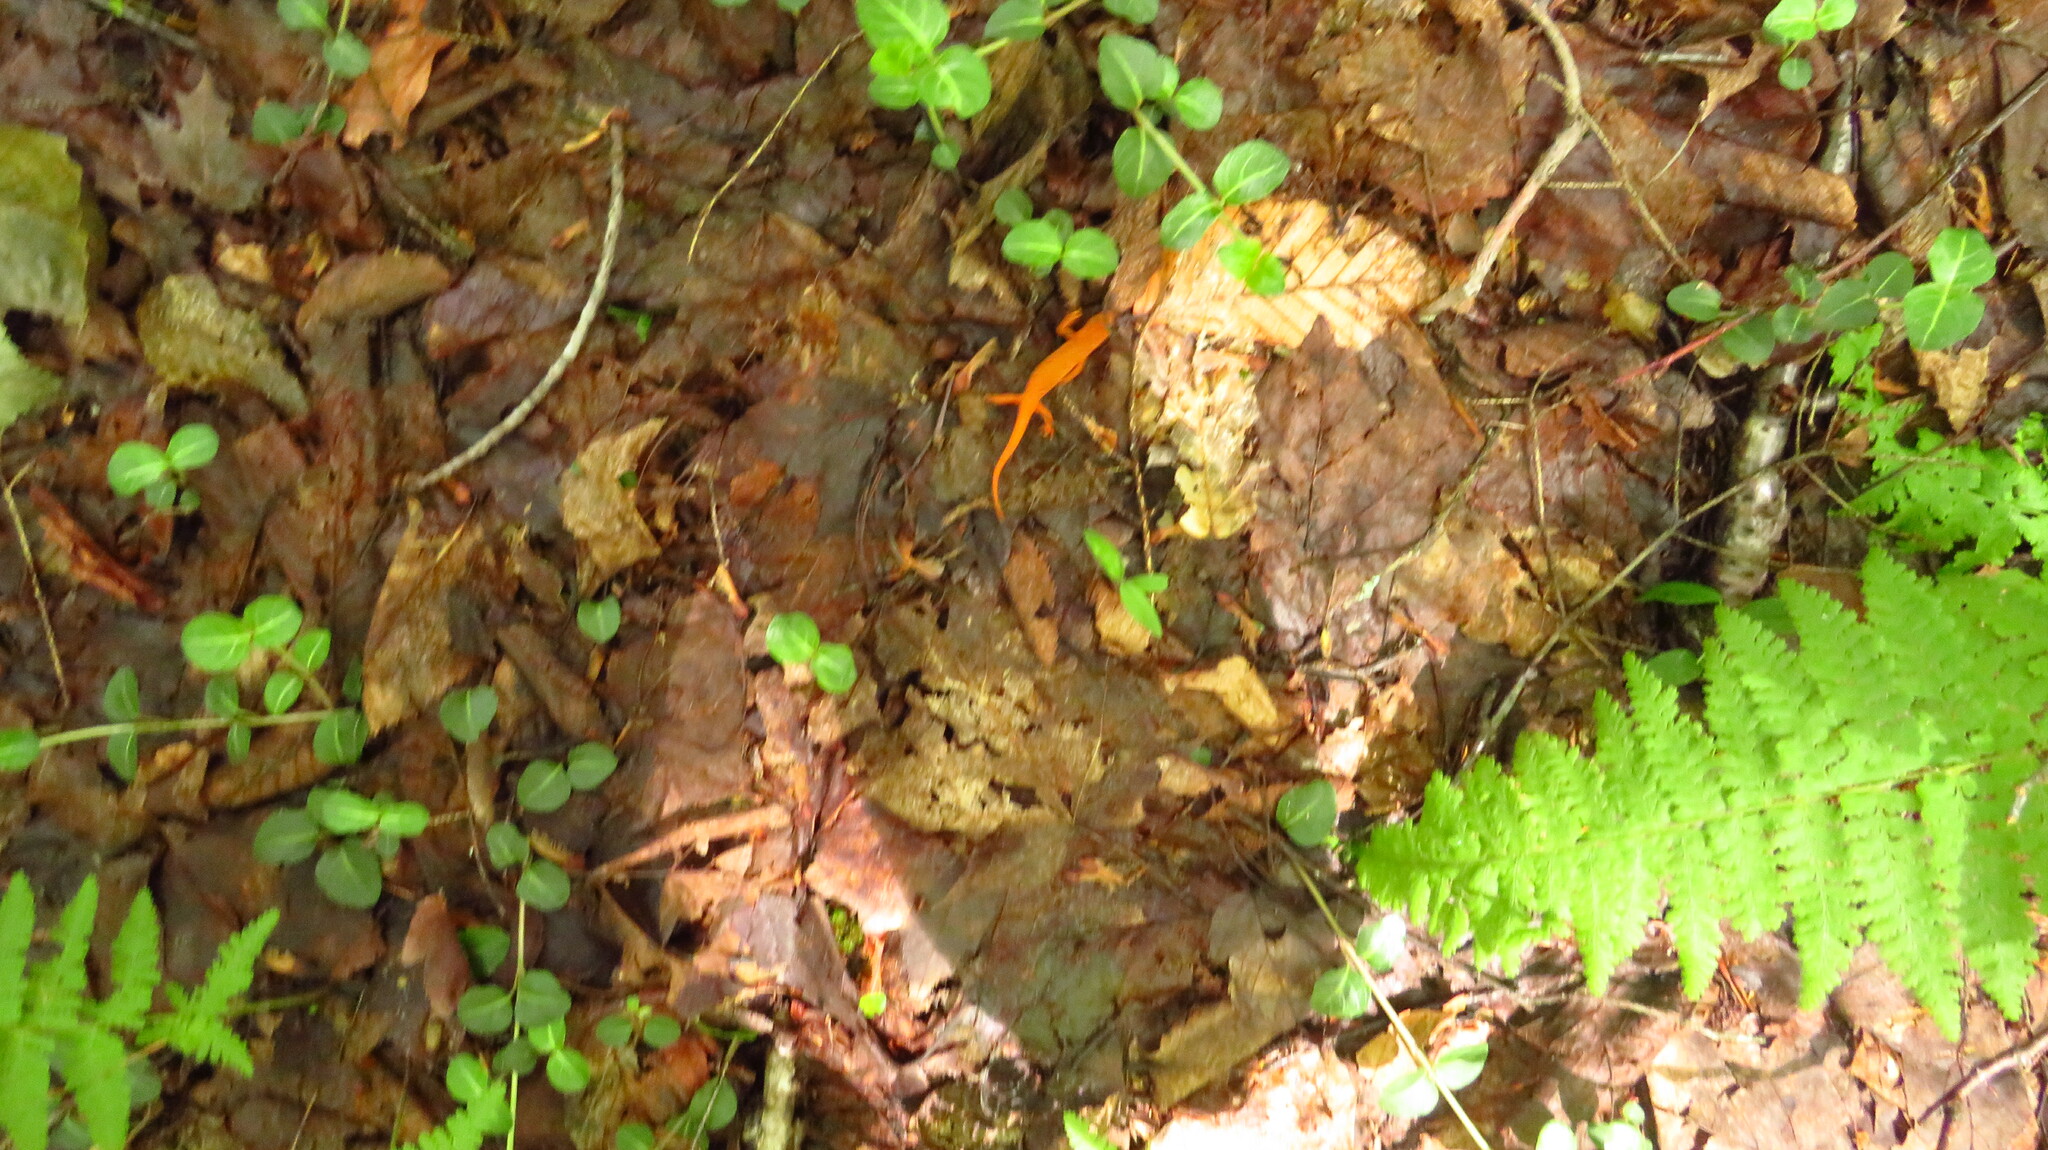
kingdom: Animalia
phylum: Chordata
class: Amphibia
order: Caudata
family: Salamandridae
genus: Notophthalmus
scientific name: Notophthalmus viridescens
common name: Eastern newt
